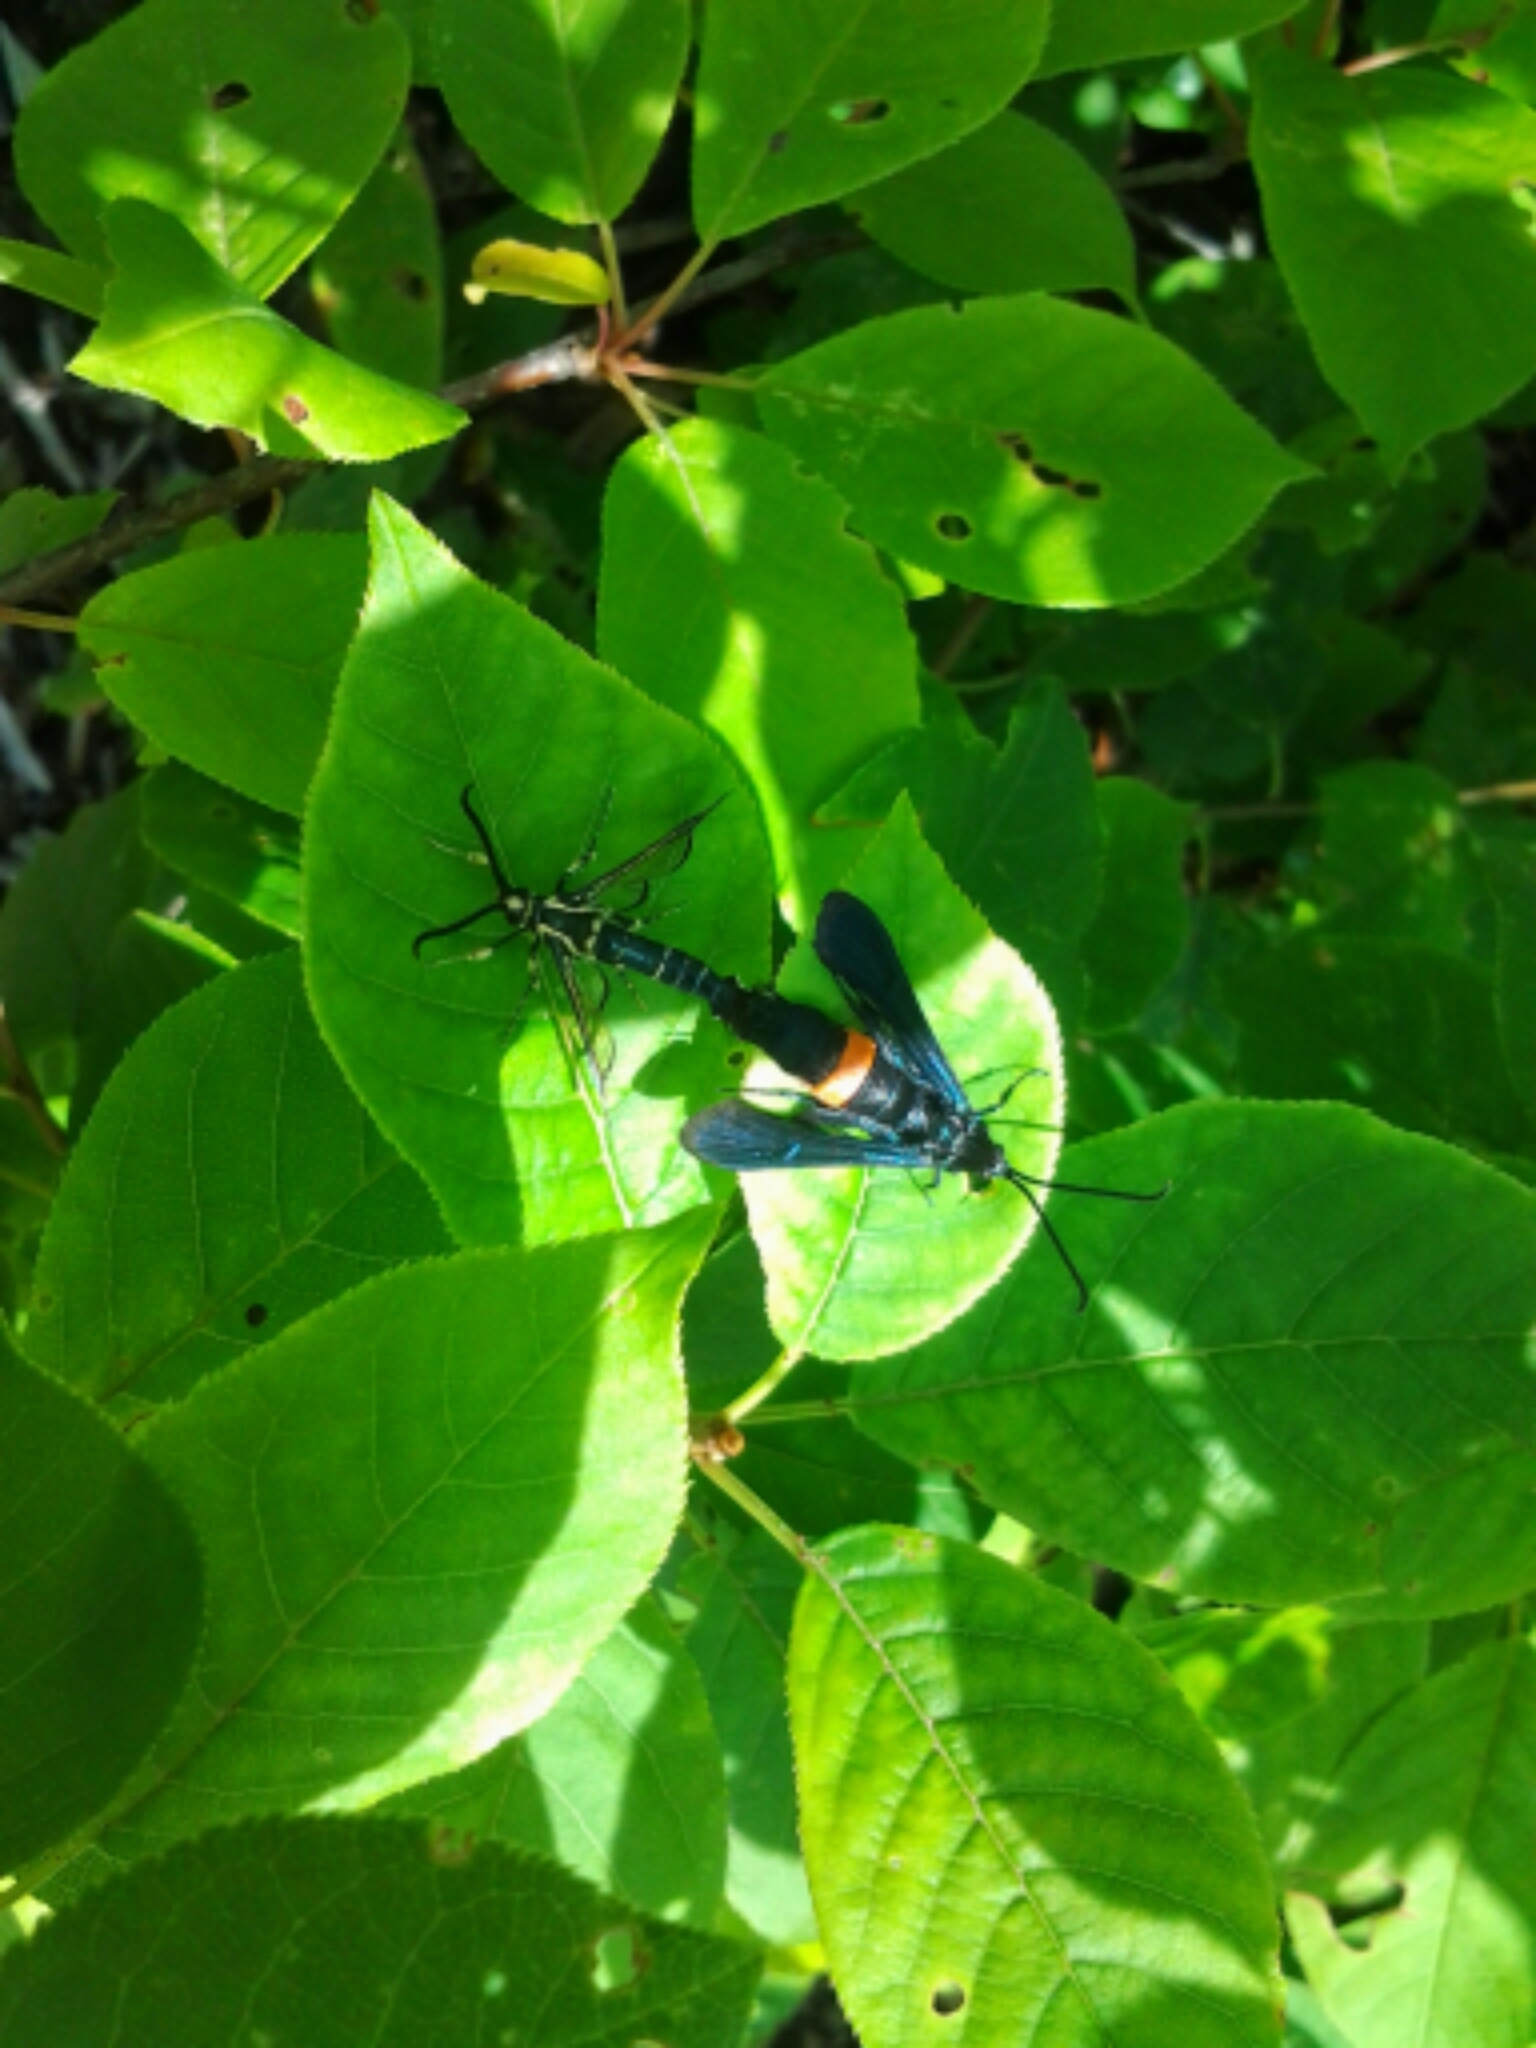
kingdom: Animalia
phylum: Arthropoda
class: Insecta
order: Lepidoptera
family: Sesiidae
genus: Synanthedon
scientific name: Synanthedon exitiosa
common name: Peachtree borer moth
